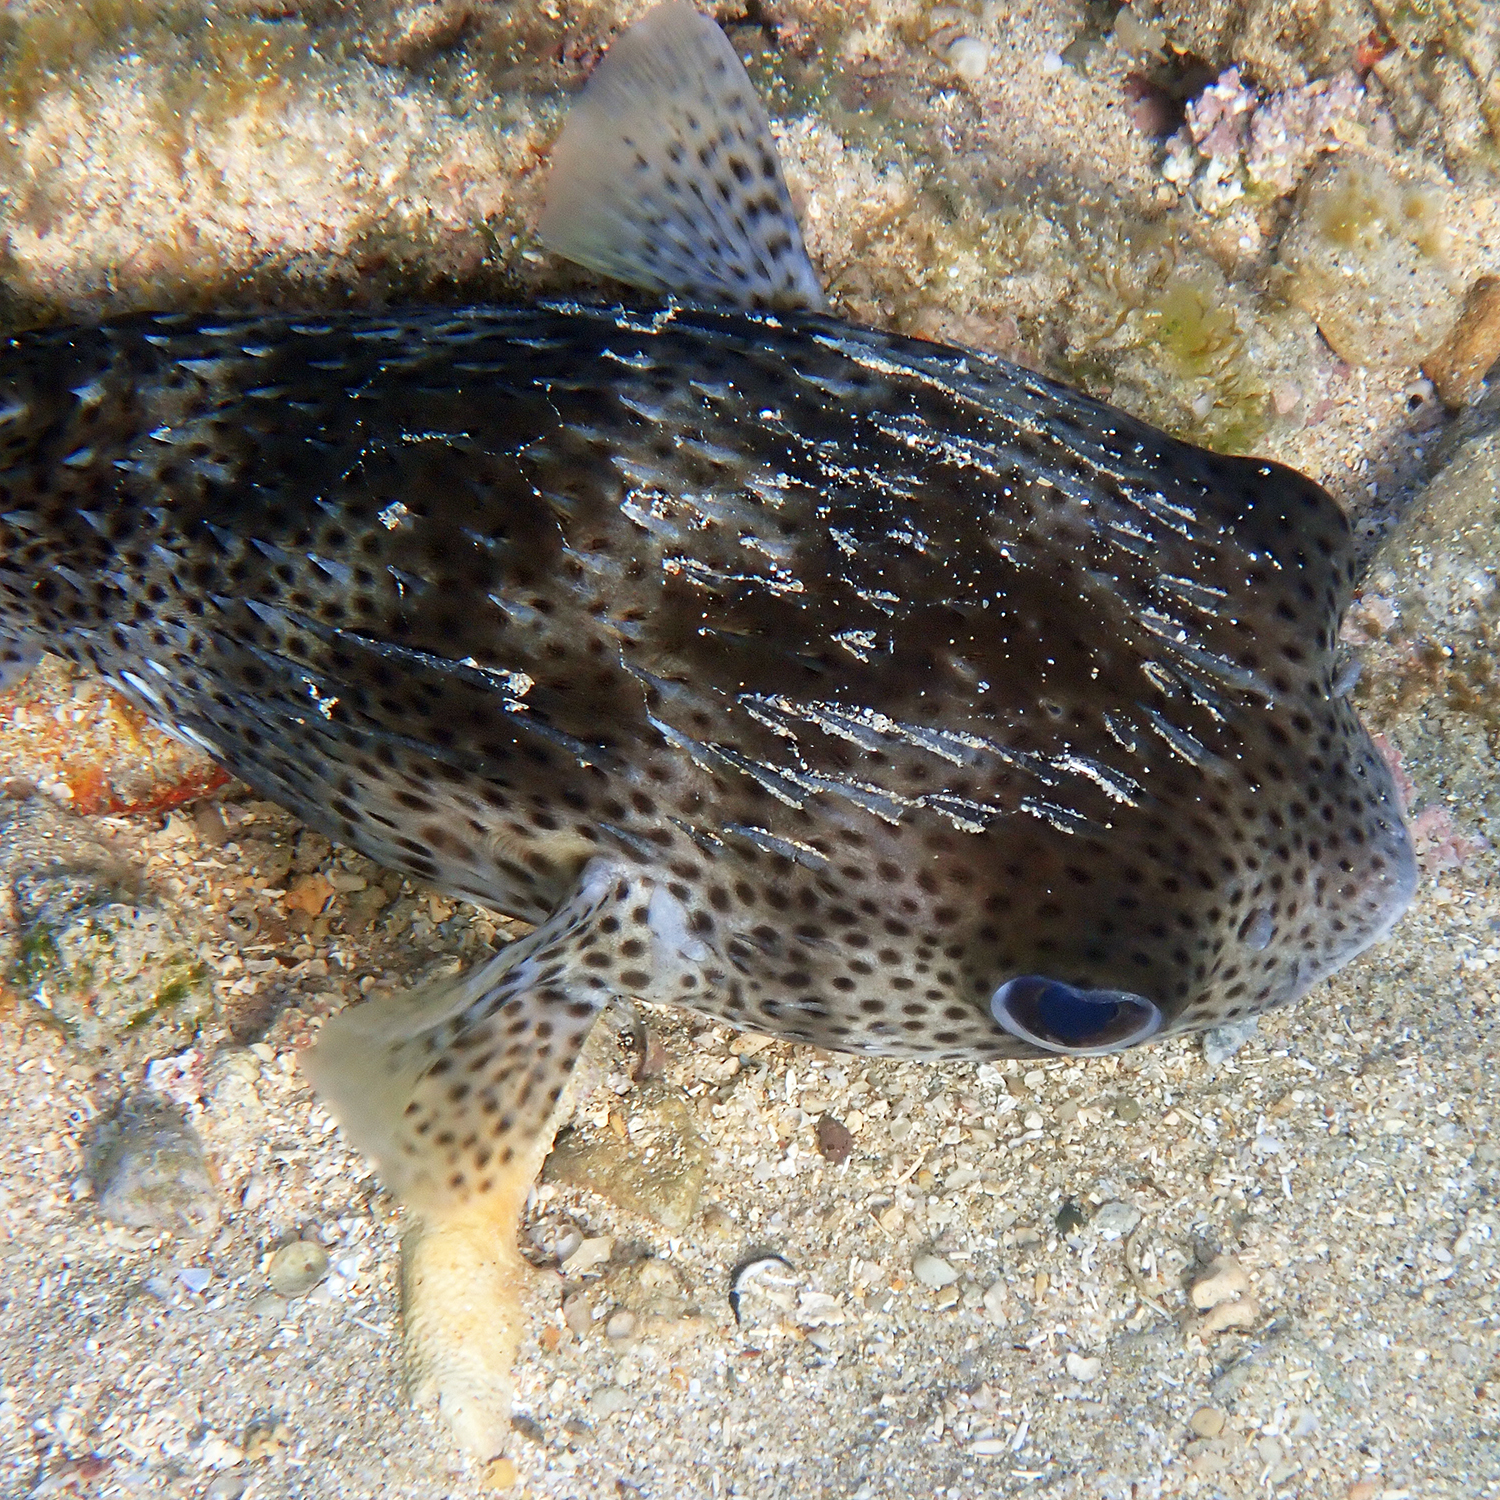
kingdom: Animalia
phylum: Chordata
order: Tetraodontiformes
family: Diodontidae
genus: Diodon
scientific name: Diodon hystrix
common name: Giant porcupinefish
